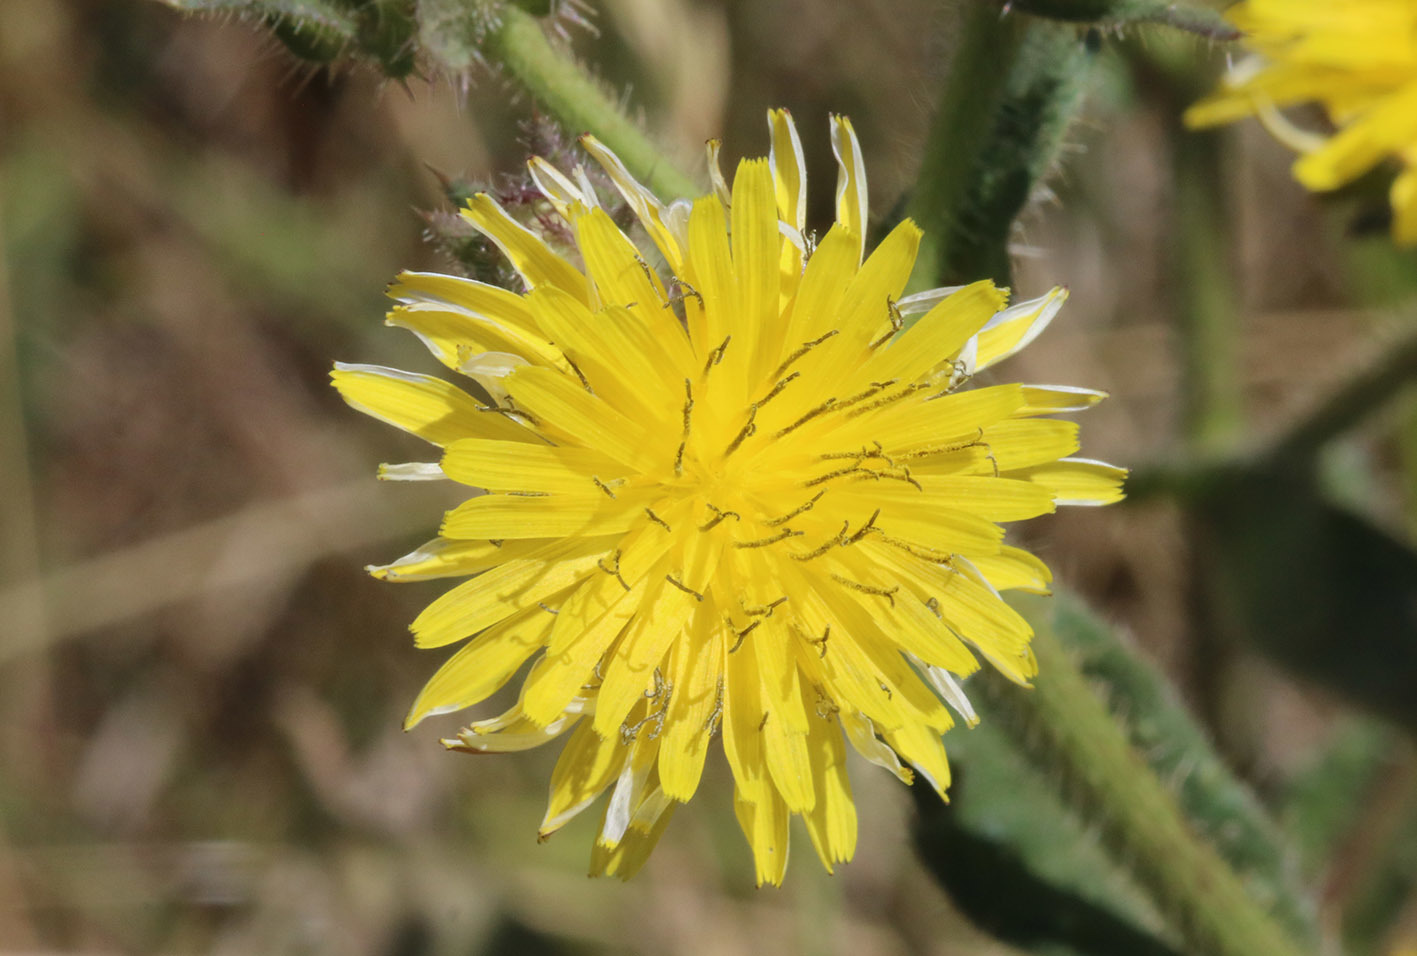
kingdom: Plantae
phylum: Tracheophyta
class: Magnoliopsida
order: Asterales
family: Asteraceae
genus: Helminthotheca
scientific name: Helminthotheca echioides
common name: Ox-tongue
